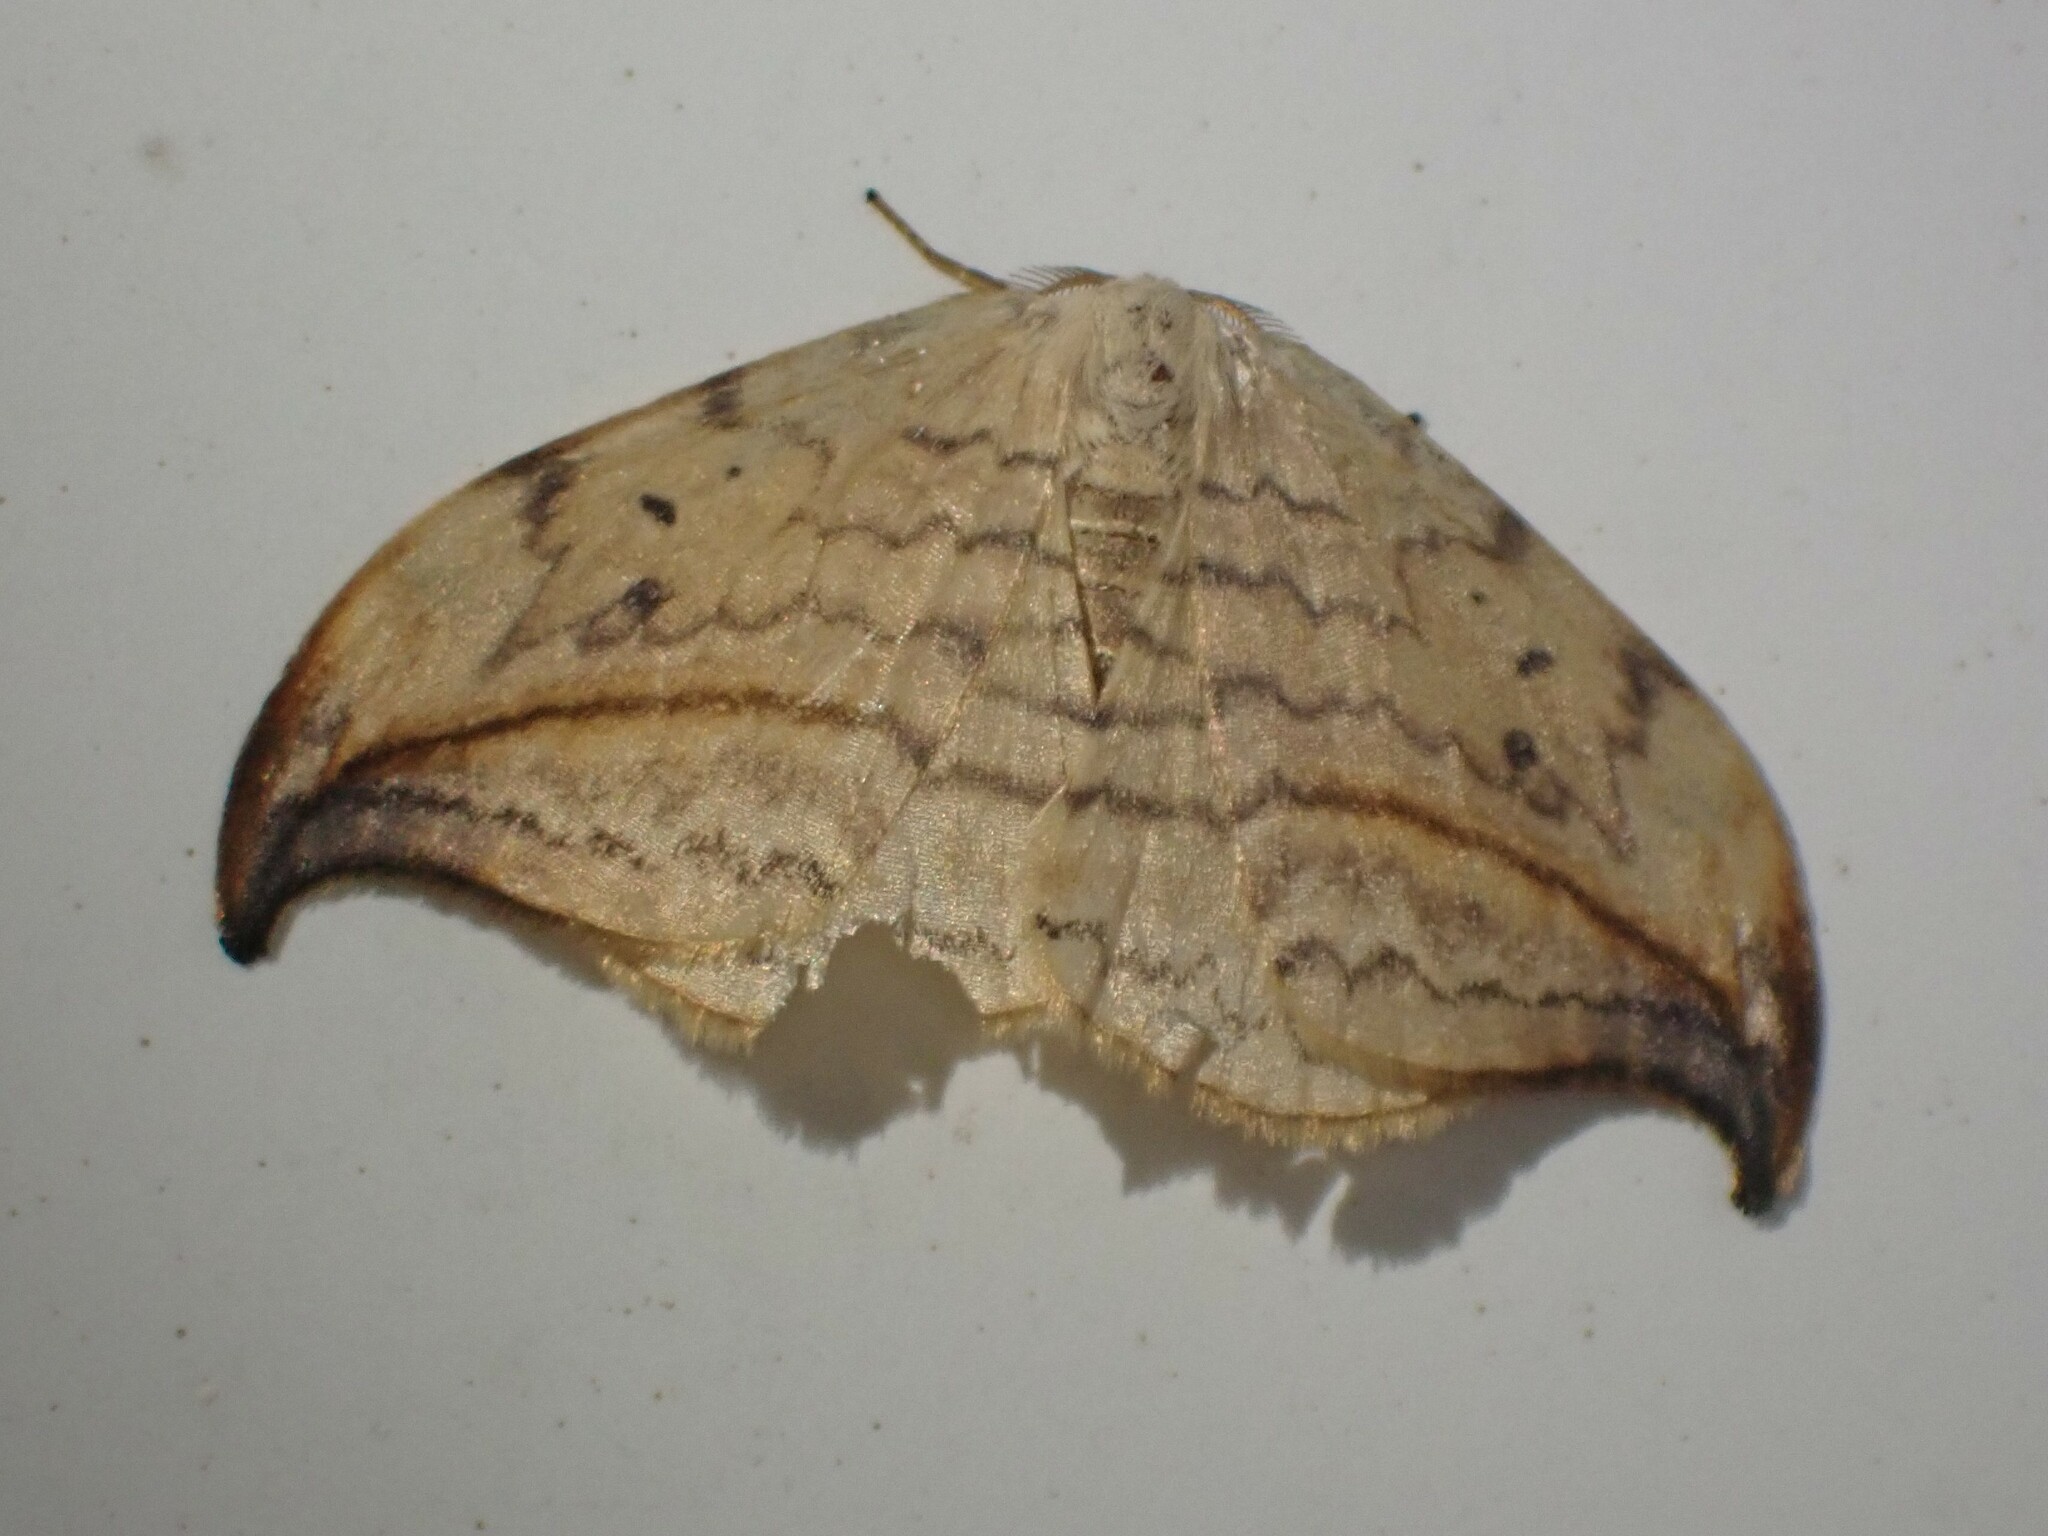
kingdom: Animalia
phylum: Arthropoda
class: Insecta
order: Lepidoptera
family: Drepanidae
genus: Drepana
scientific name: Drepana arcuata
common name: Arched hooktip moth
